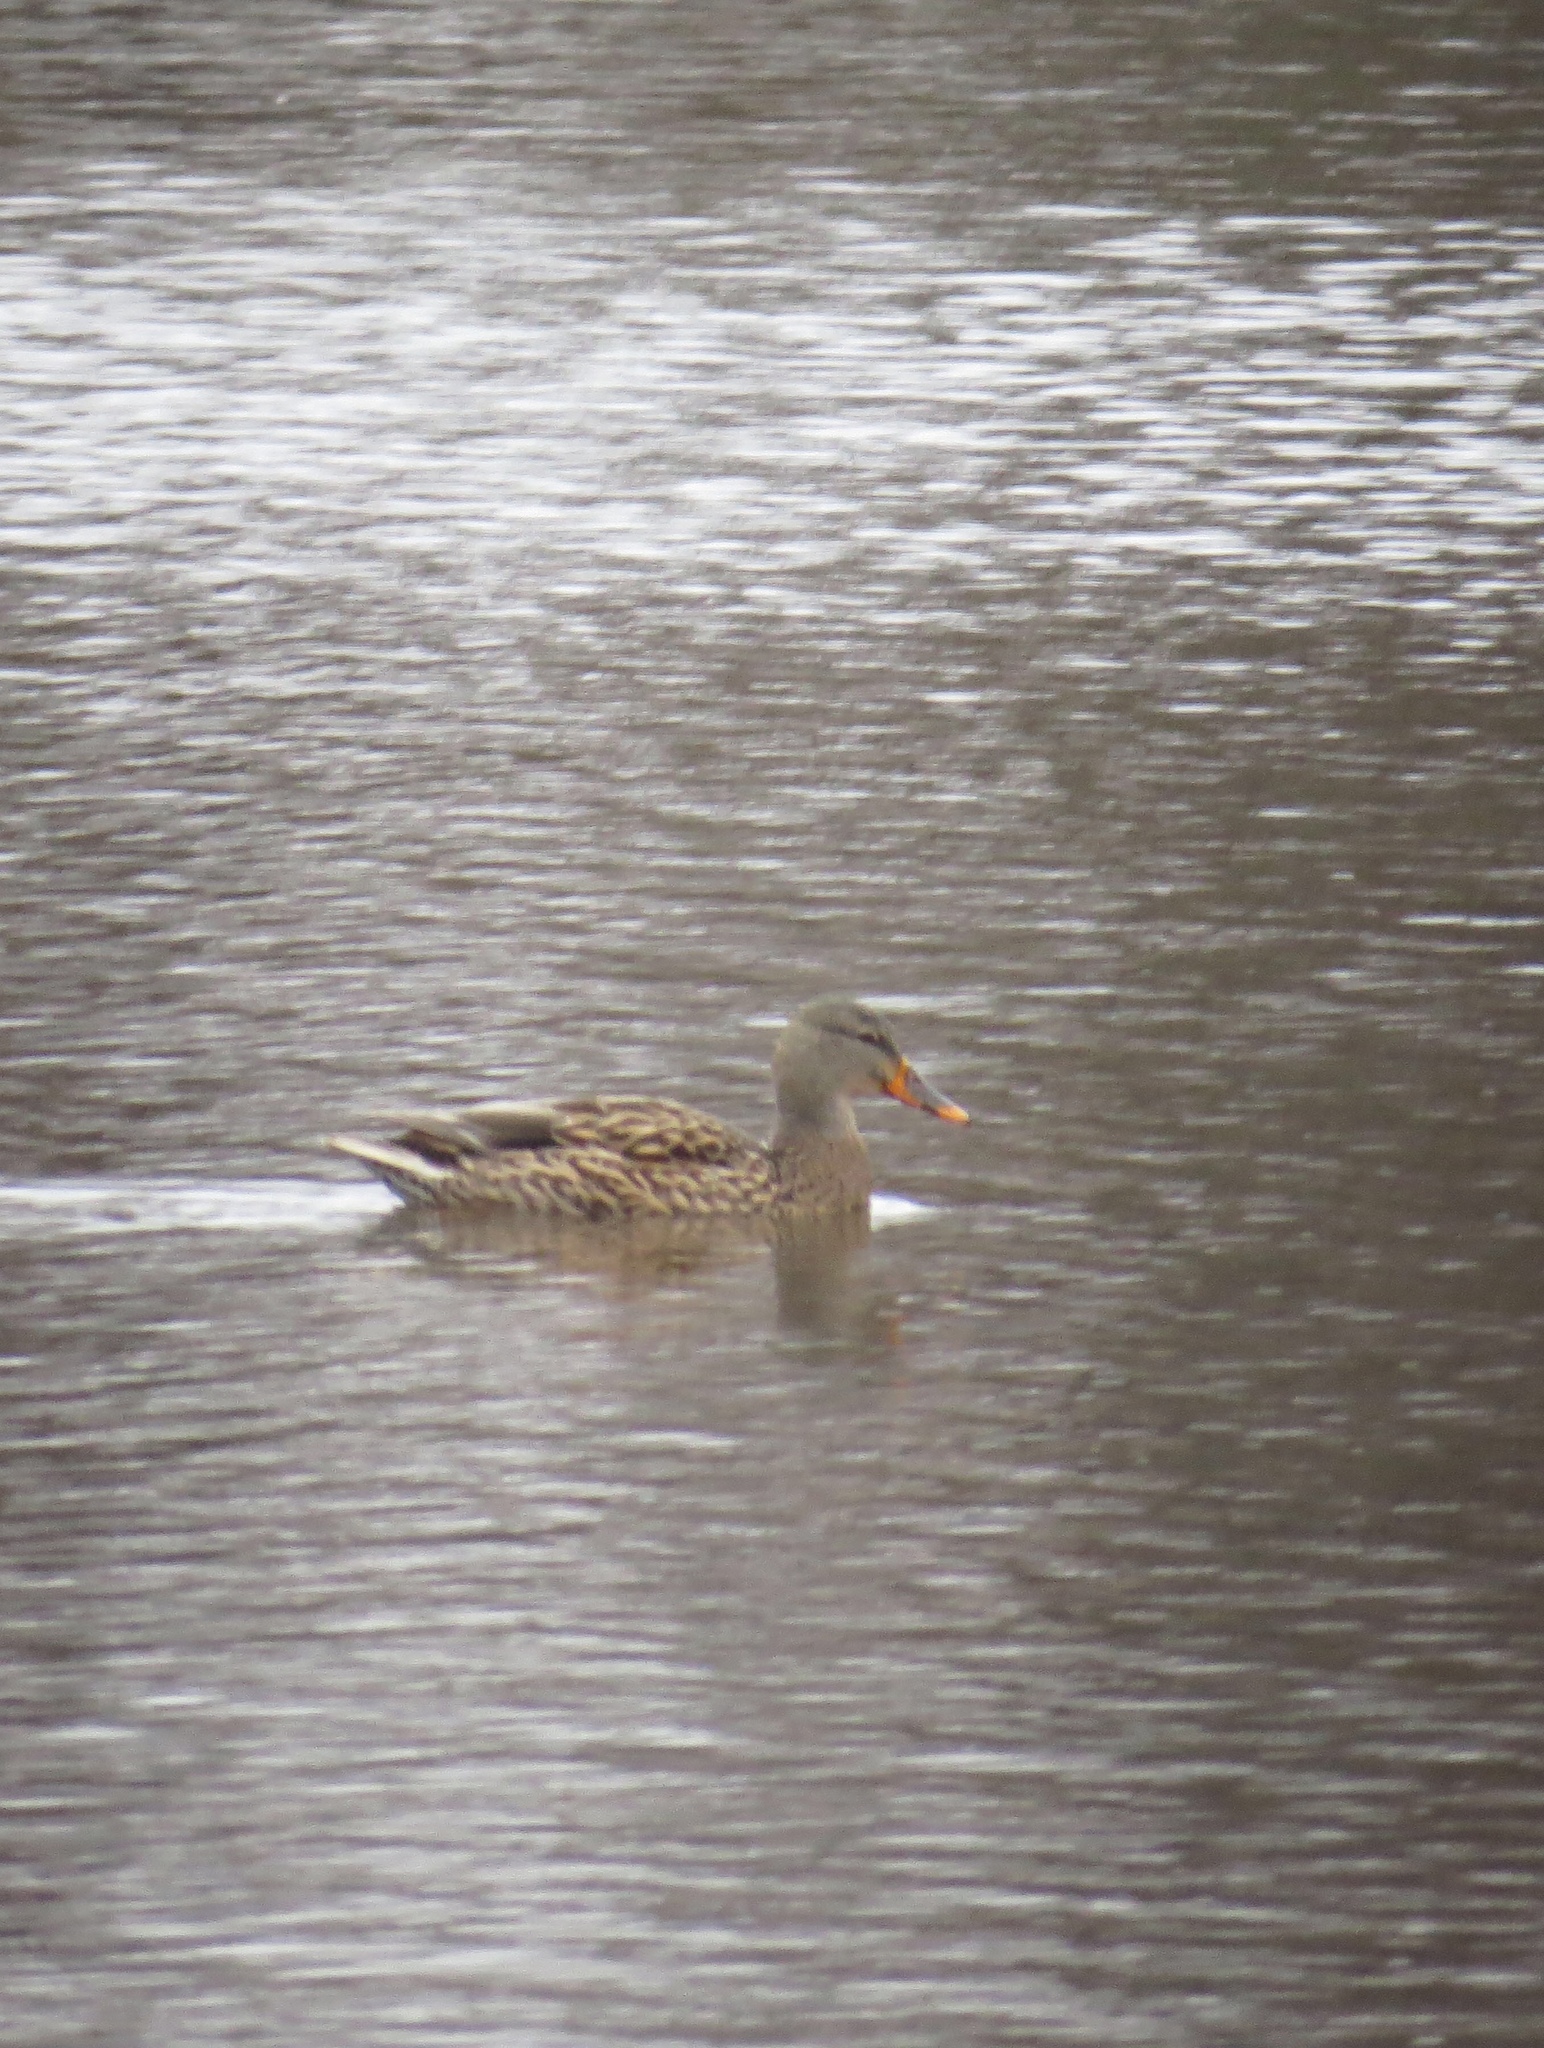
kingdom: Animalia
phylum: Chordata
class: Aves
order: Anseriformes
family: Anatidae
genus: Anas
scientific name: Anas platyrhynchos
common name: Mallard
